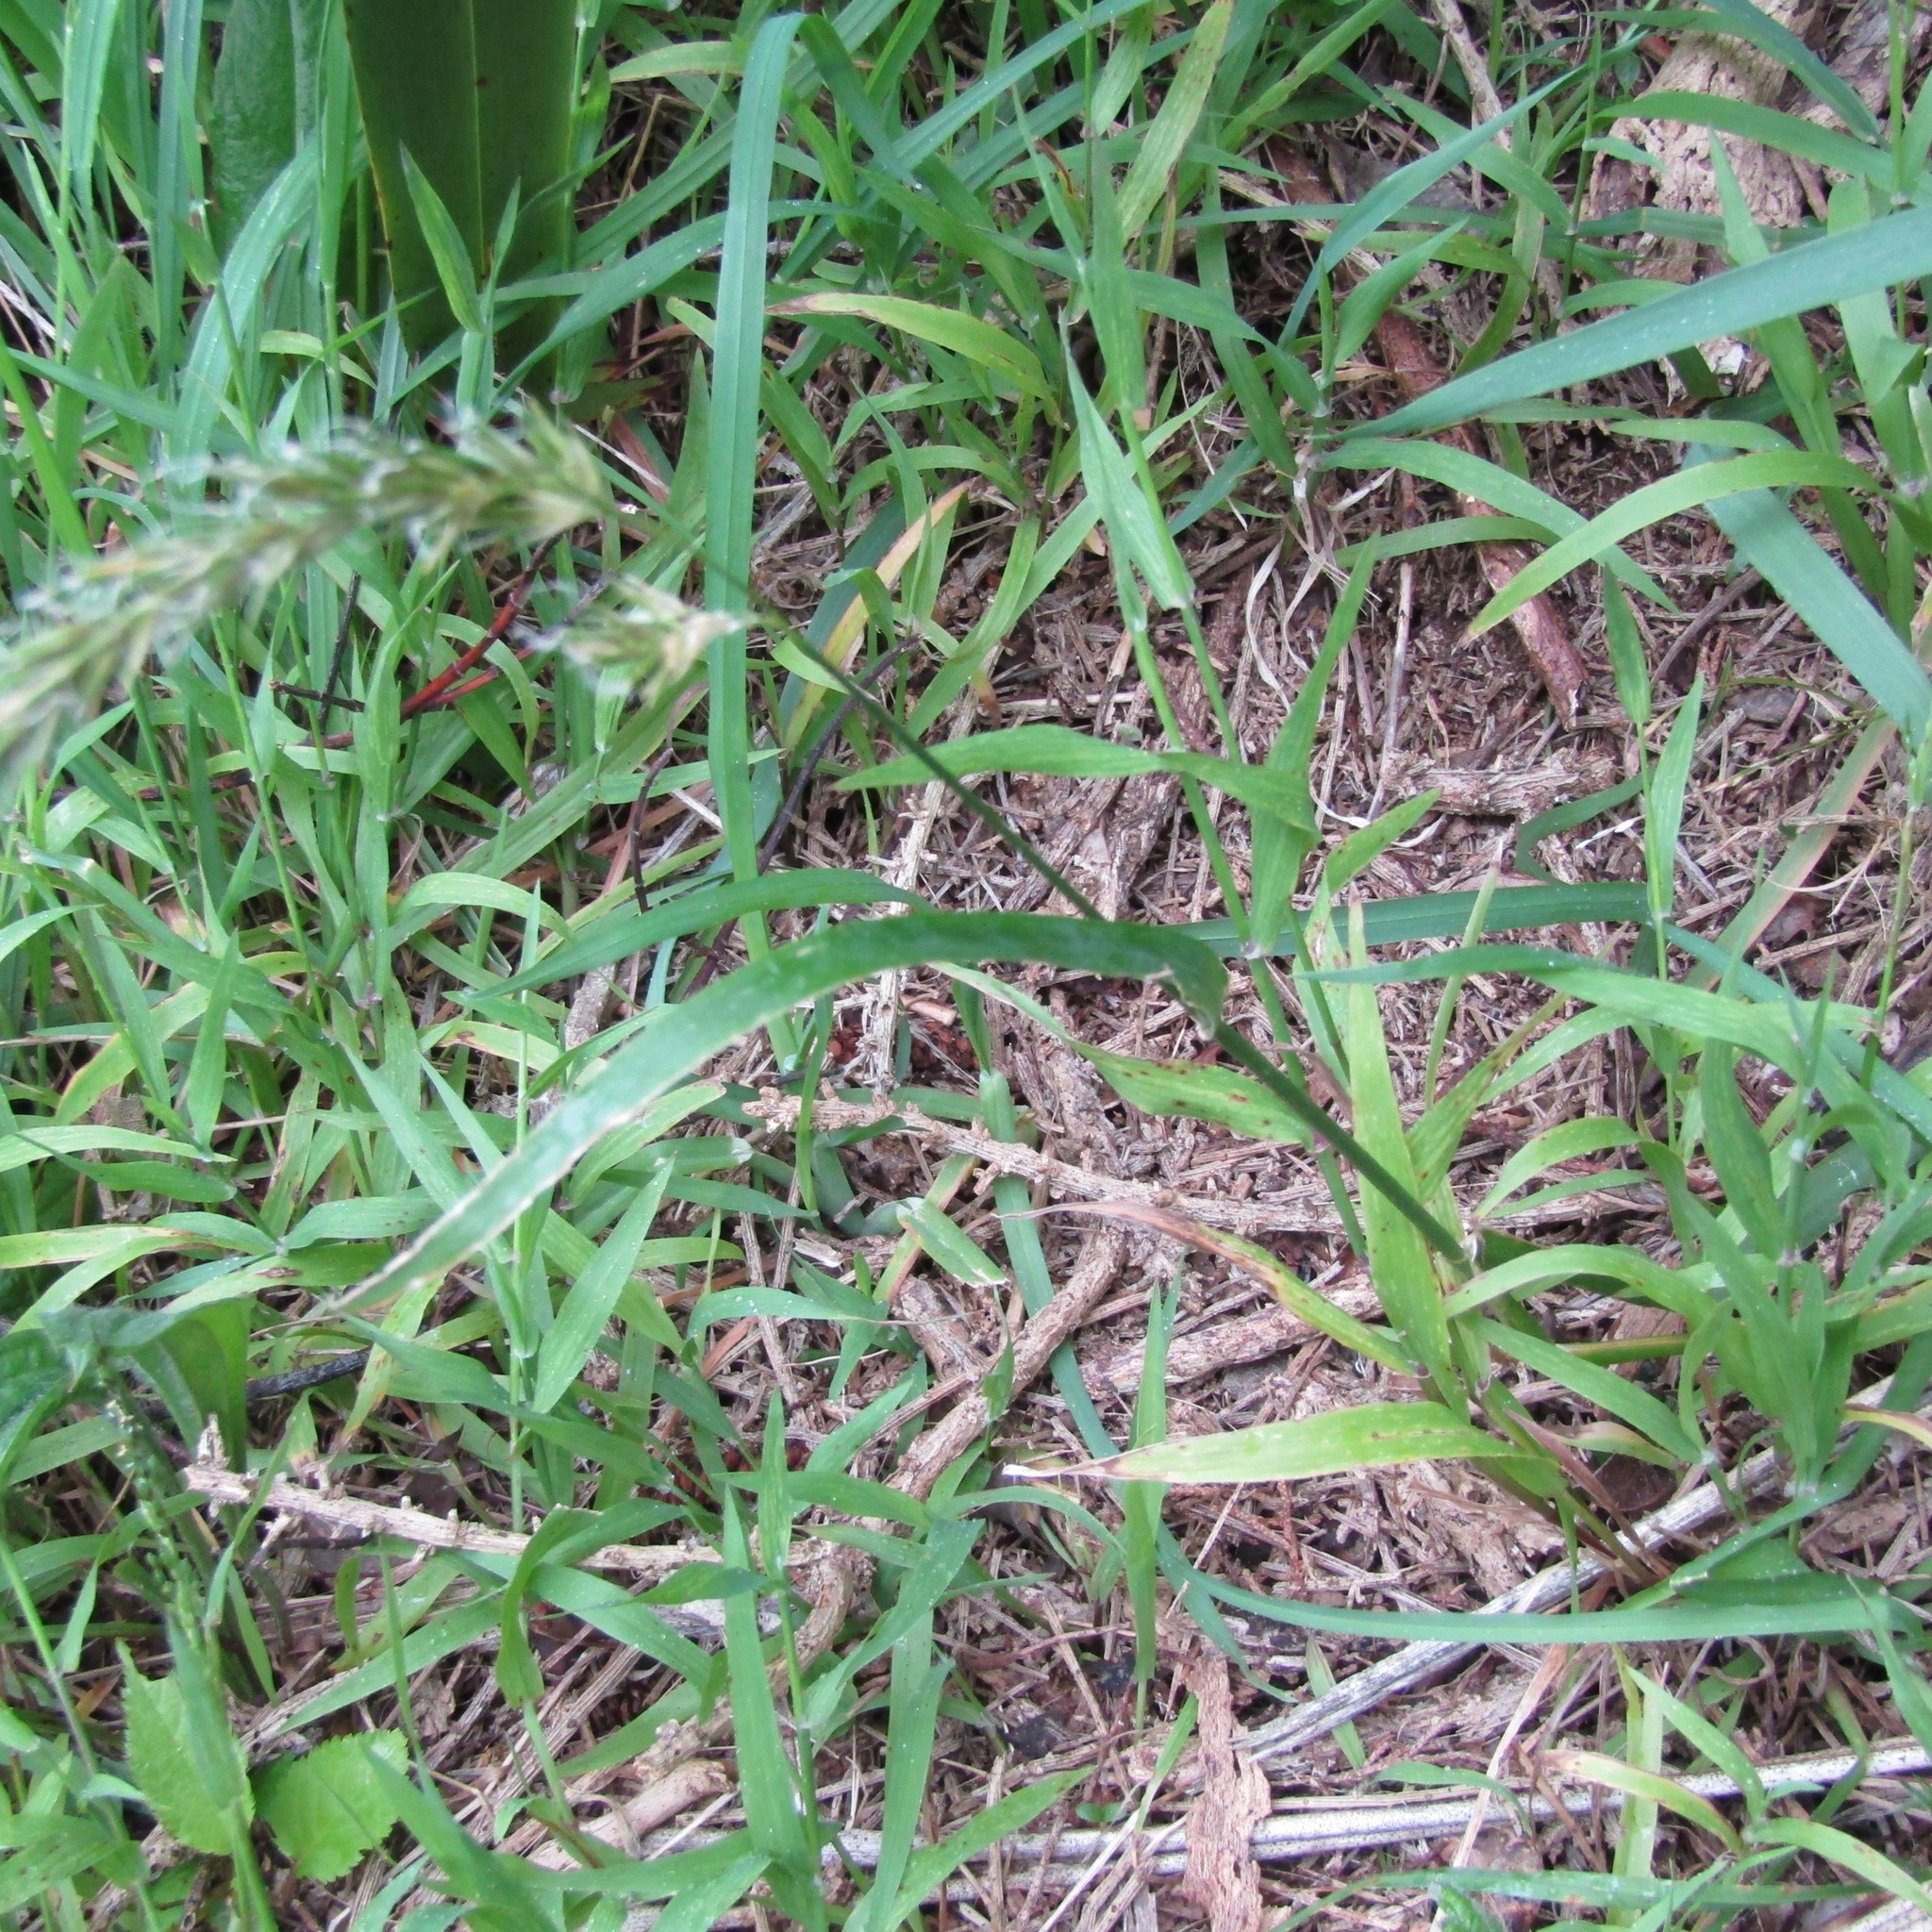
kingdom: Plantae
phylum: Tracheophyta
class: Liliopsida
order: Poales
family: Poaceae
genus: Anthoxanthum
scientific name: Anthoxanthum odoratum
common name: Sweet vernalgrass
